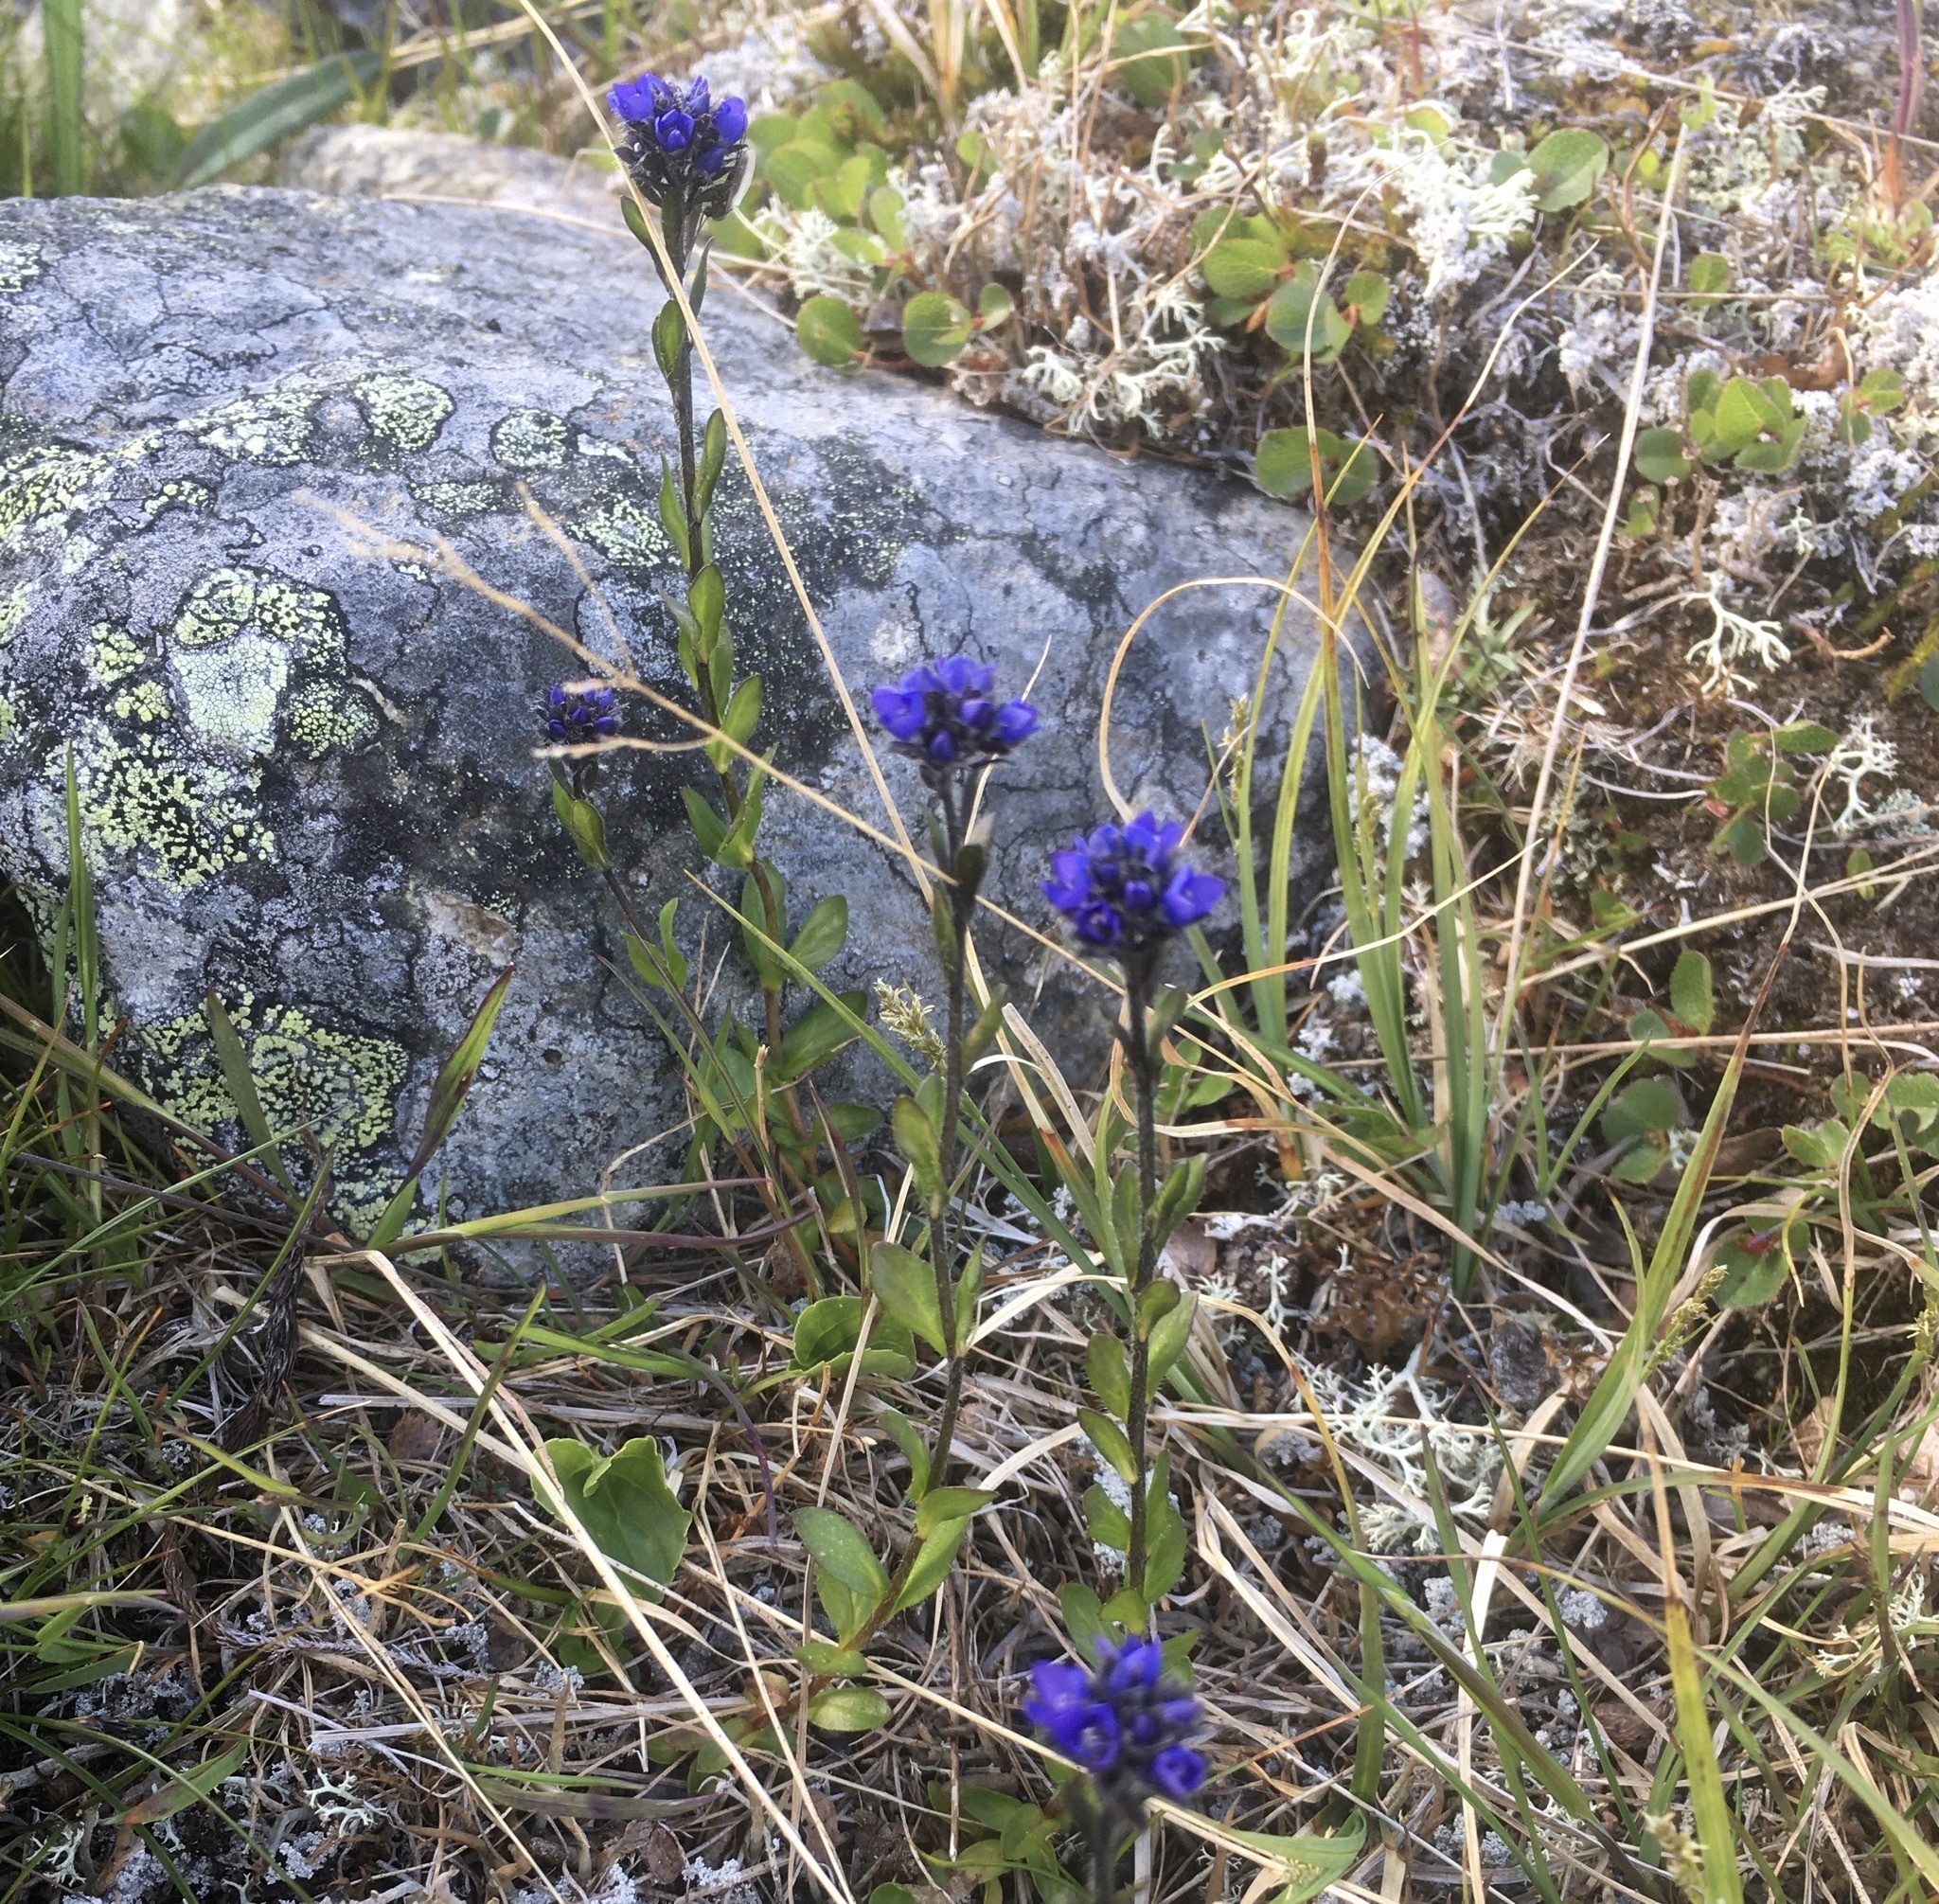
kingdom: Plantae
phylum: Tracheophyta
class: Magnoliopsida
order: Lamiales
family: Plantaginaceae
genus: Veronica
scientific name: Veronica alpina
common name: Alpine speedwell
